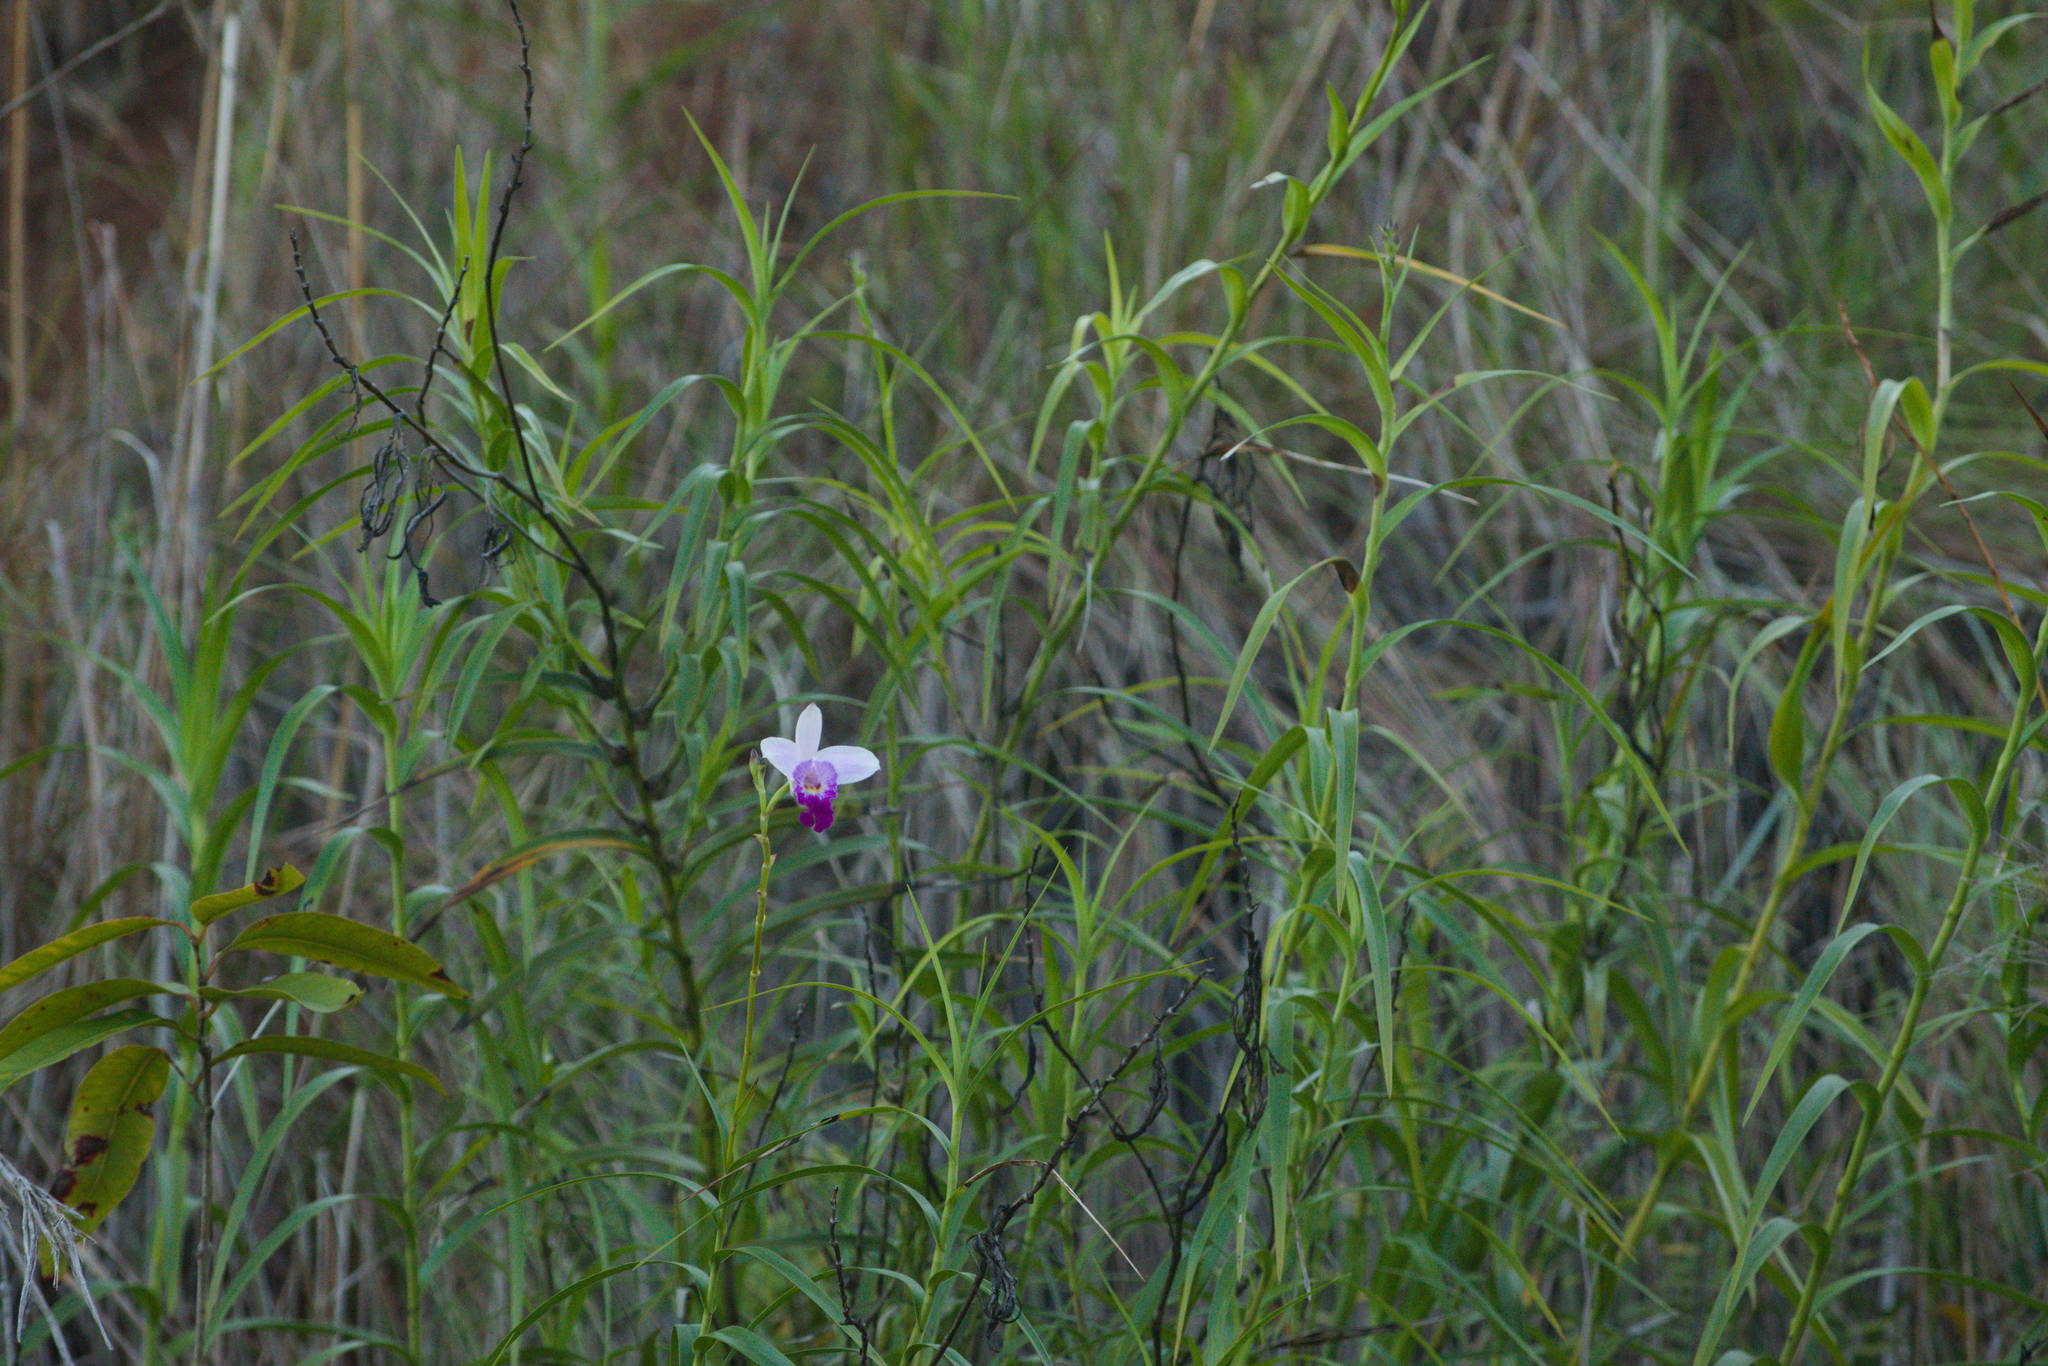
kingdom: Plantae
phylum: Tracheophyta
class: Liliopsida
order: Asparagales
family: Orchidaceae
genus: Arundina
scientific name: Arundina graminifolia
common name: Bamboo orchid
